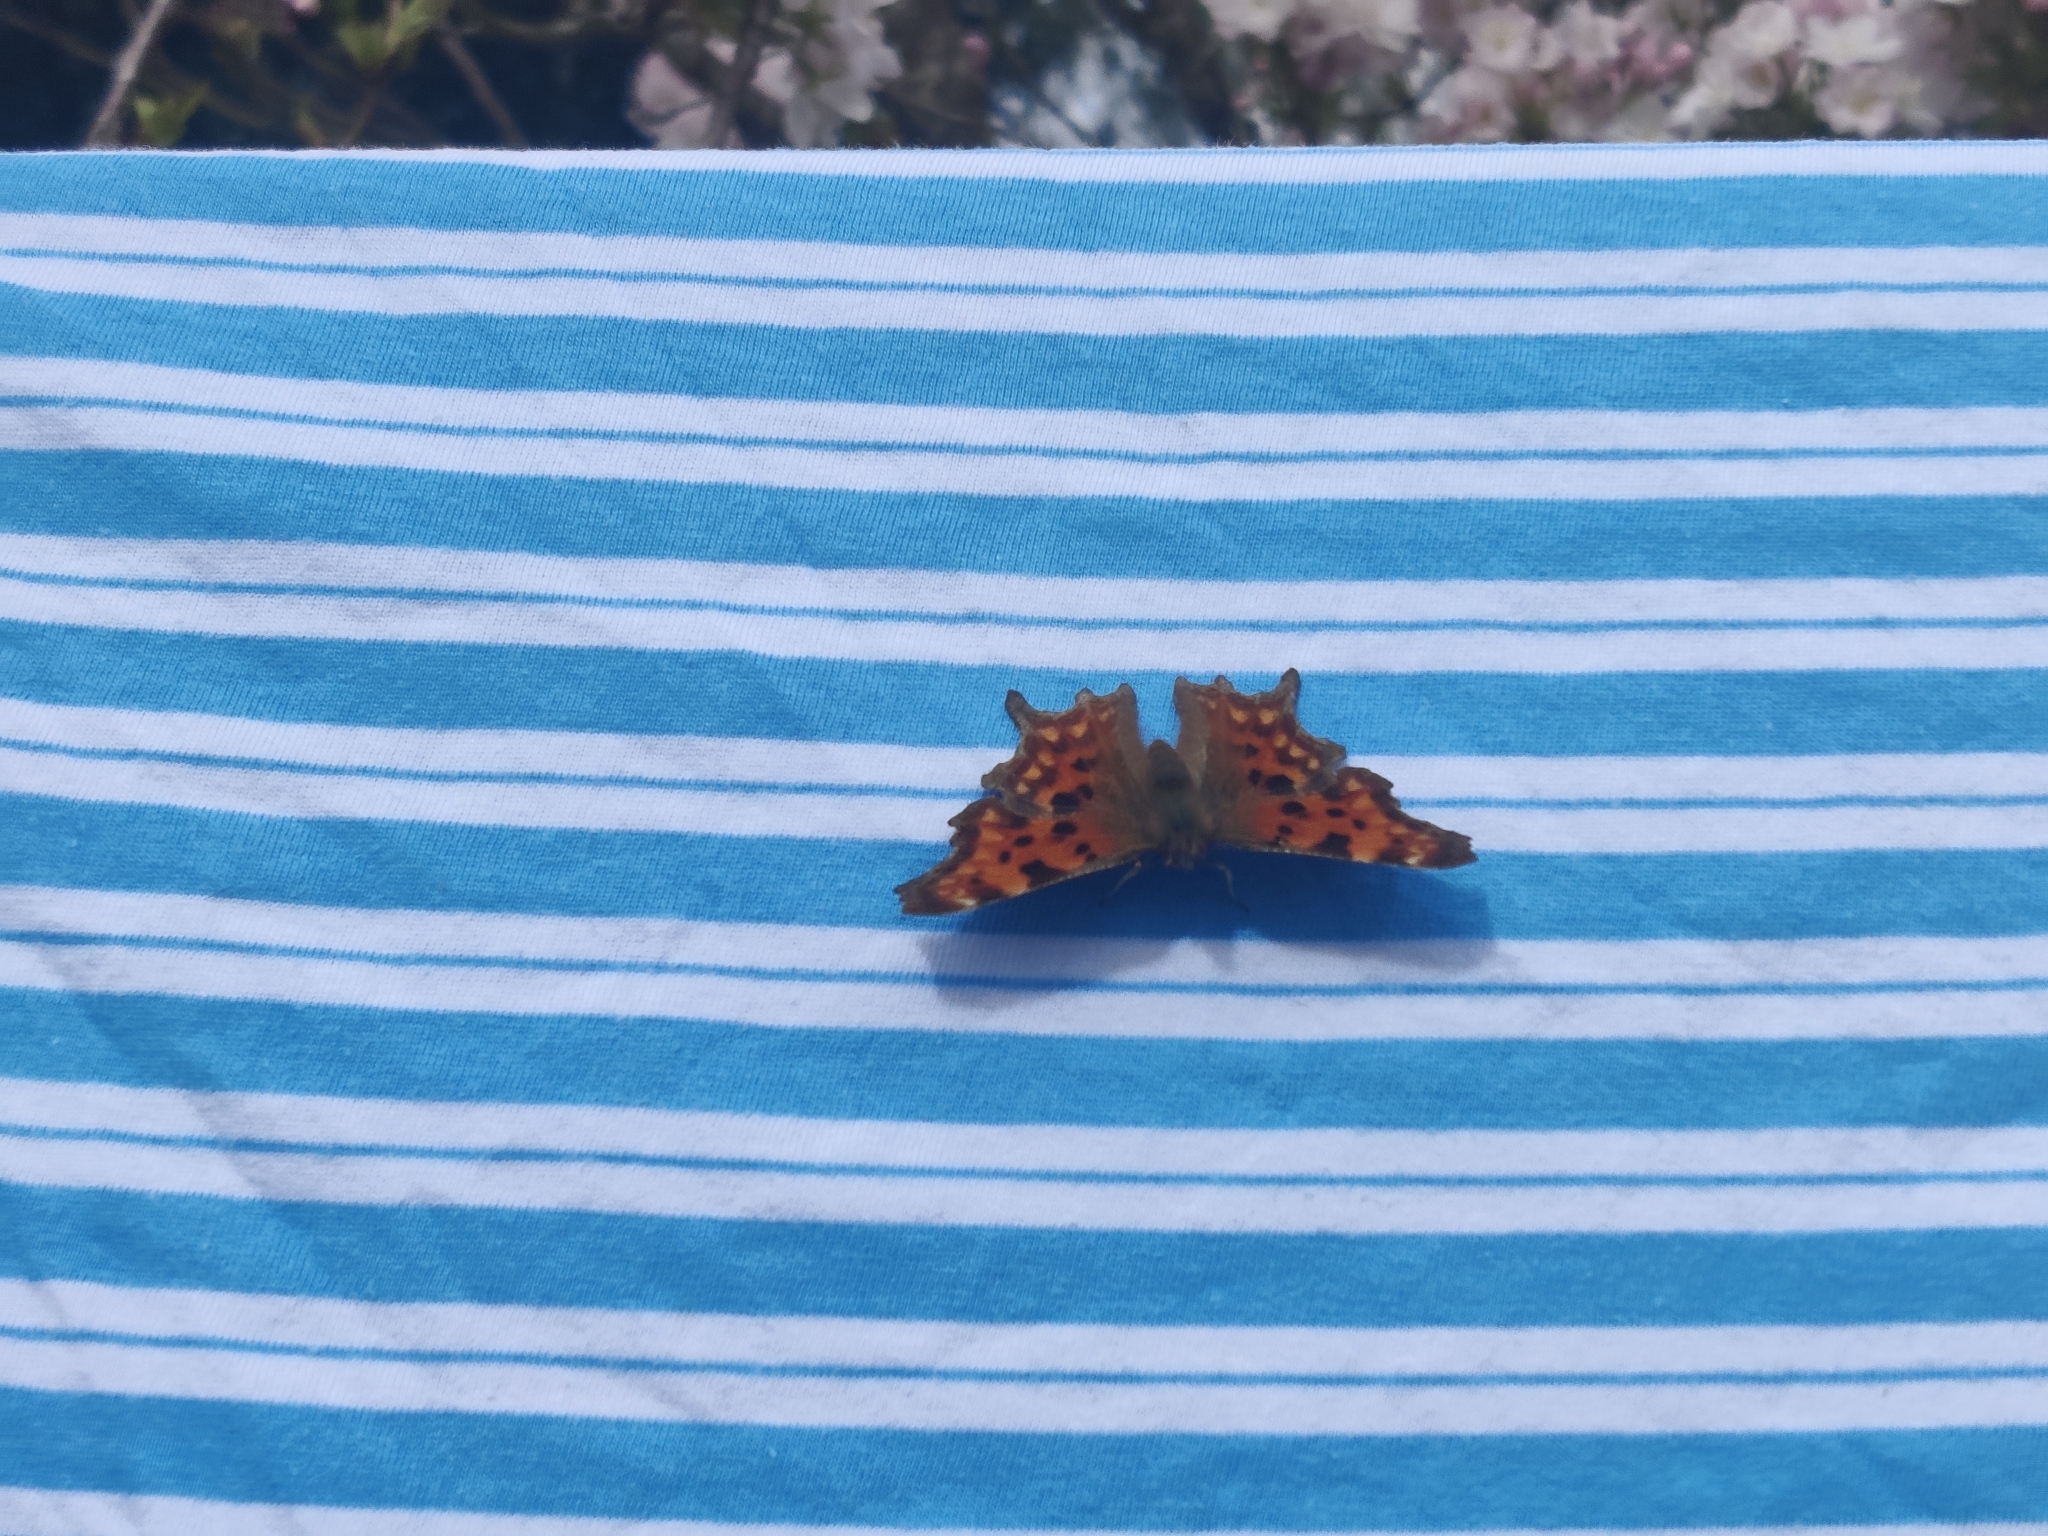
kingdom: Animalia
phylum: Arthropoda
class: Insecta
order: Lepidoptera
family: Nymphalidae
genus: Polygonia
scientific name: Polygonia c-album
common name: Comma
